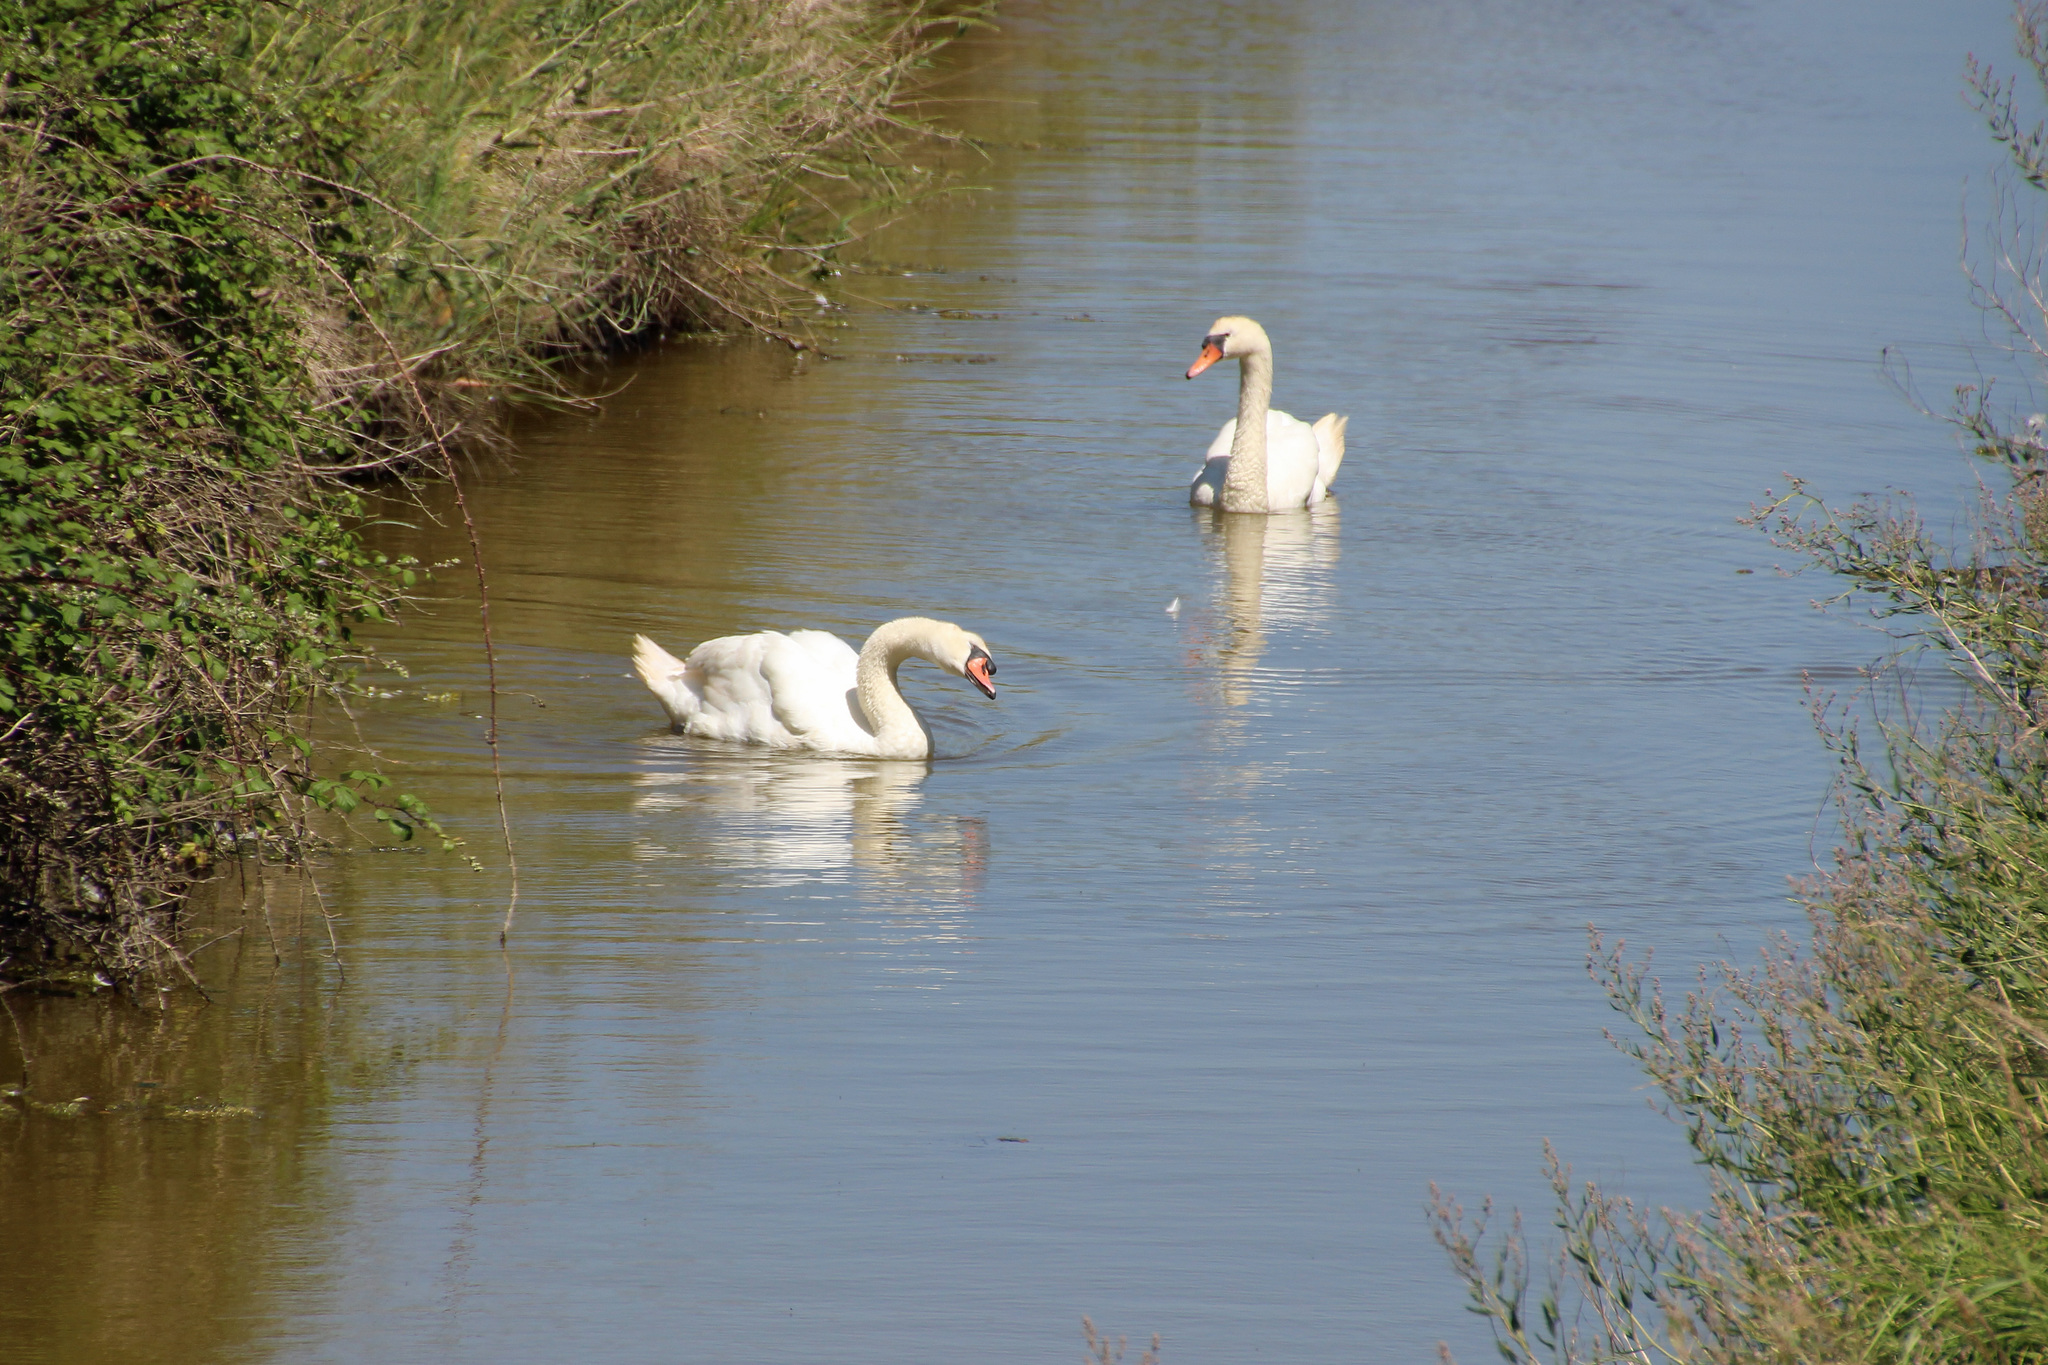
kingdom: Animalia
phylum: Chordata
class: Aves
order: Anseriformes
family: Anatidae
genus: Cygnus
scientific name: Cygnus olor
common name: Mute swan
